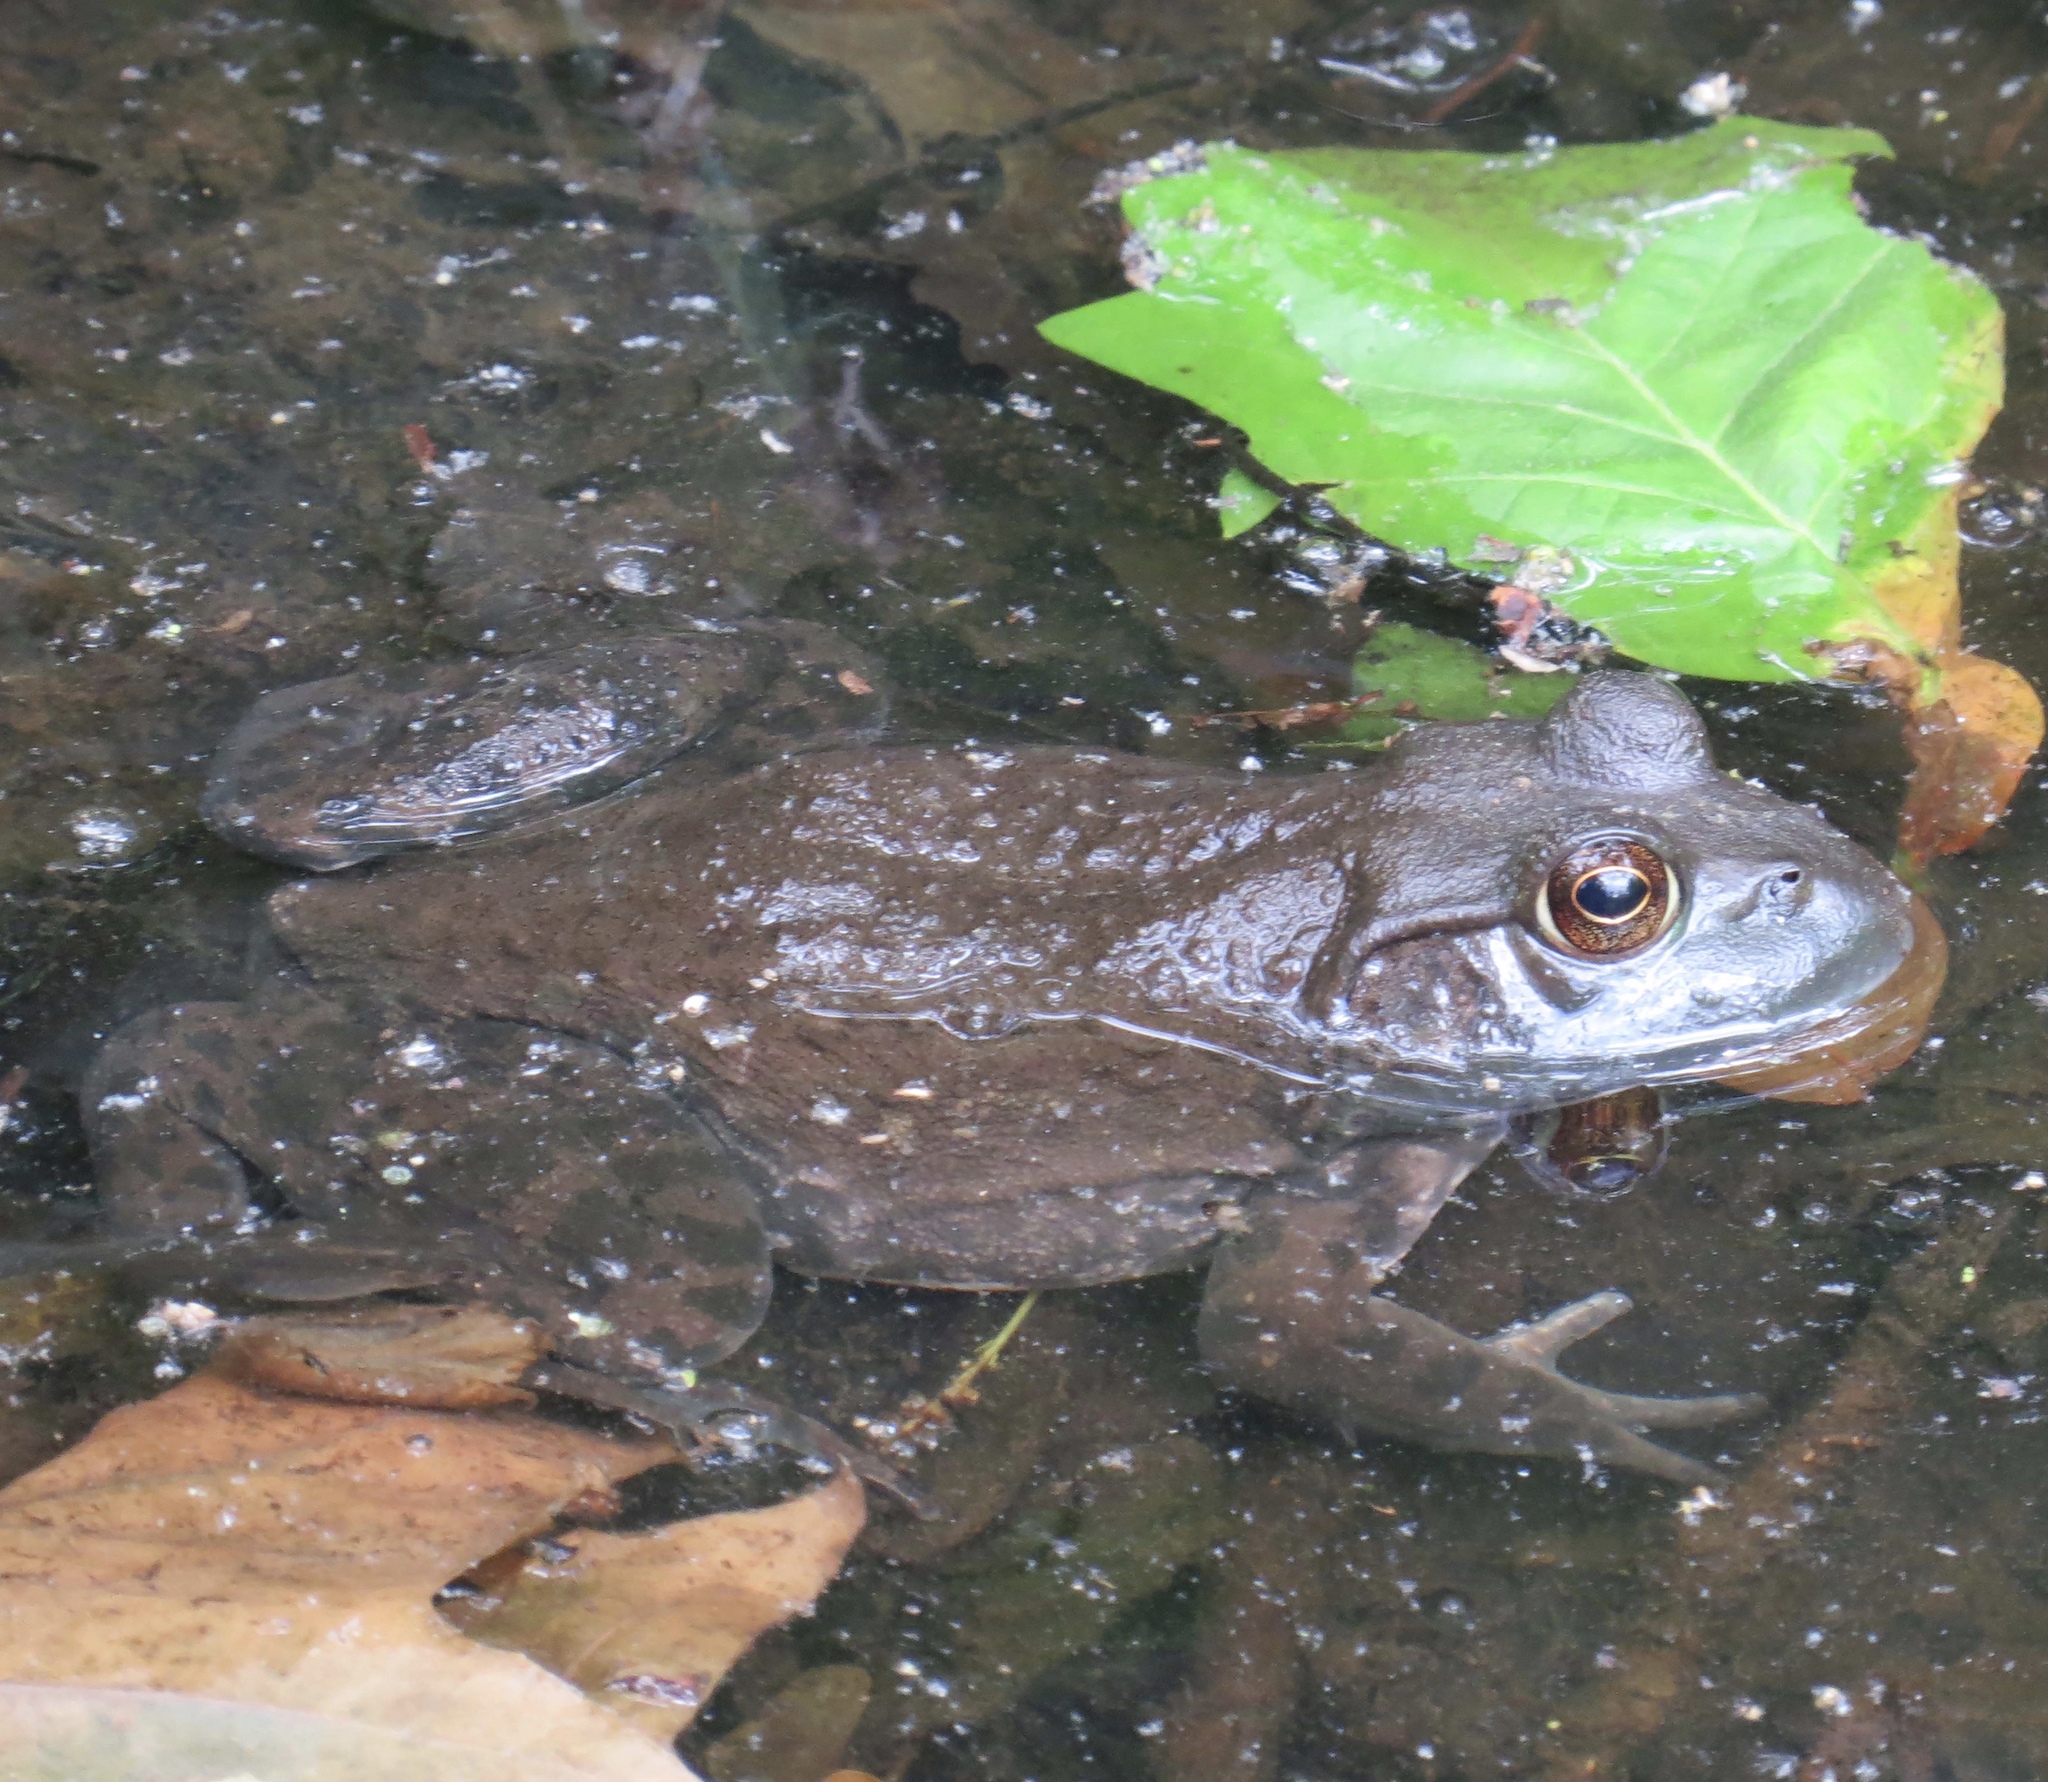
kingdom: Animalia
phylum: Chordata
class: Amphibia
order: Anura
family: Ranidae
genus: Lithobates
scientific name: Lithobates catesbeianus
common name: American bullfrog
